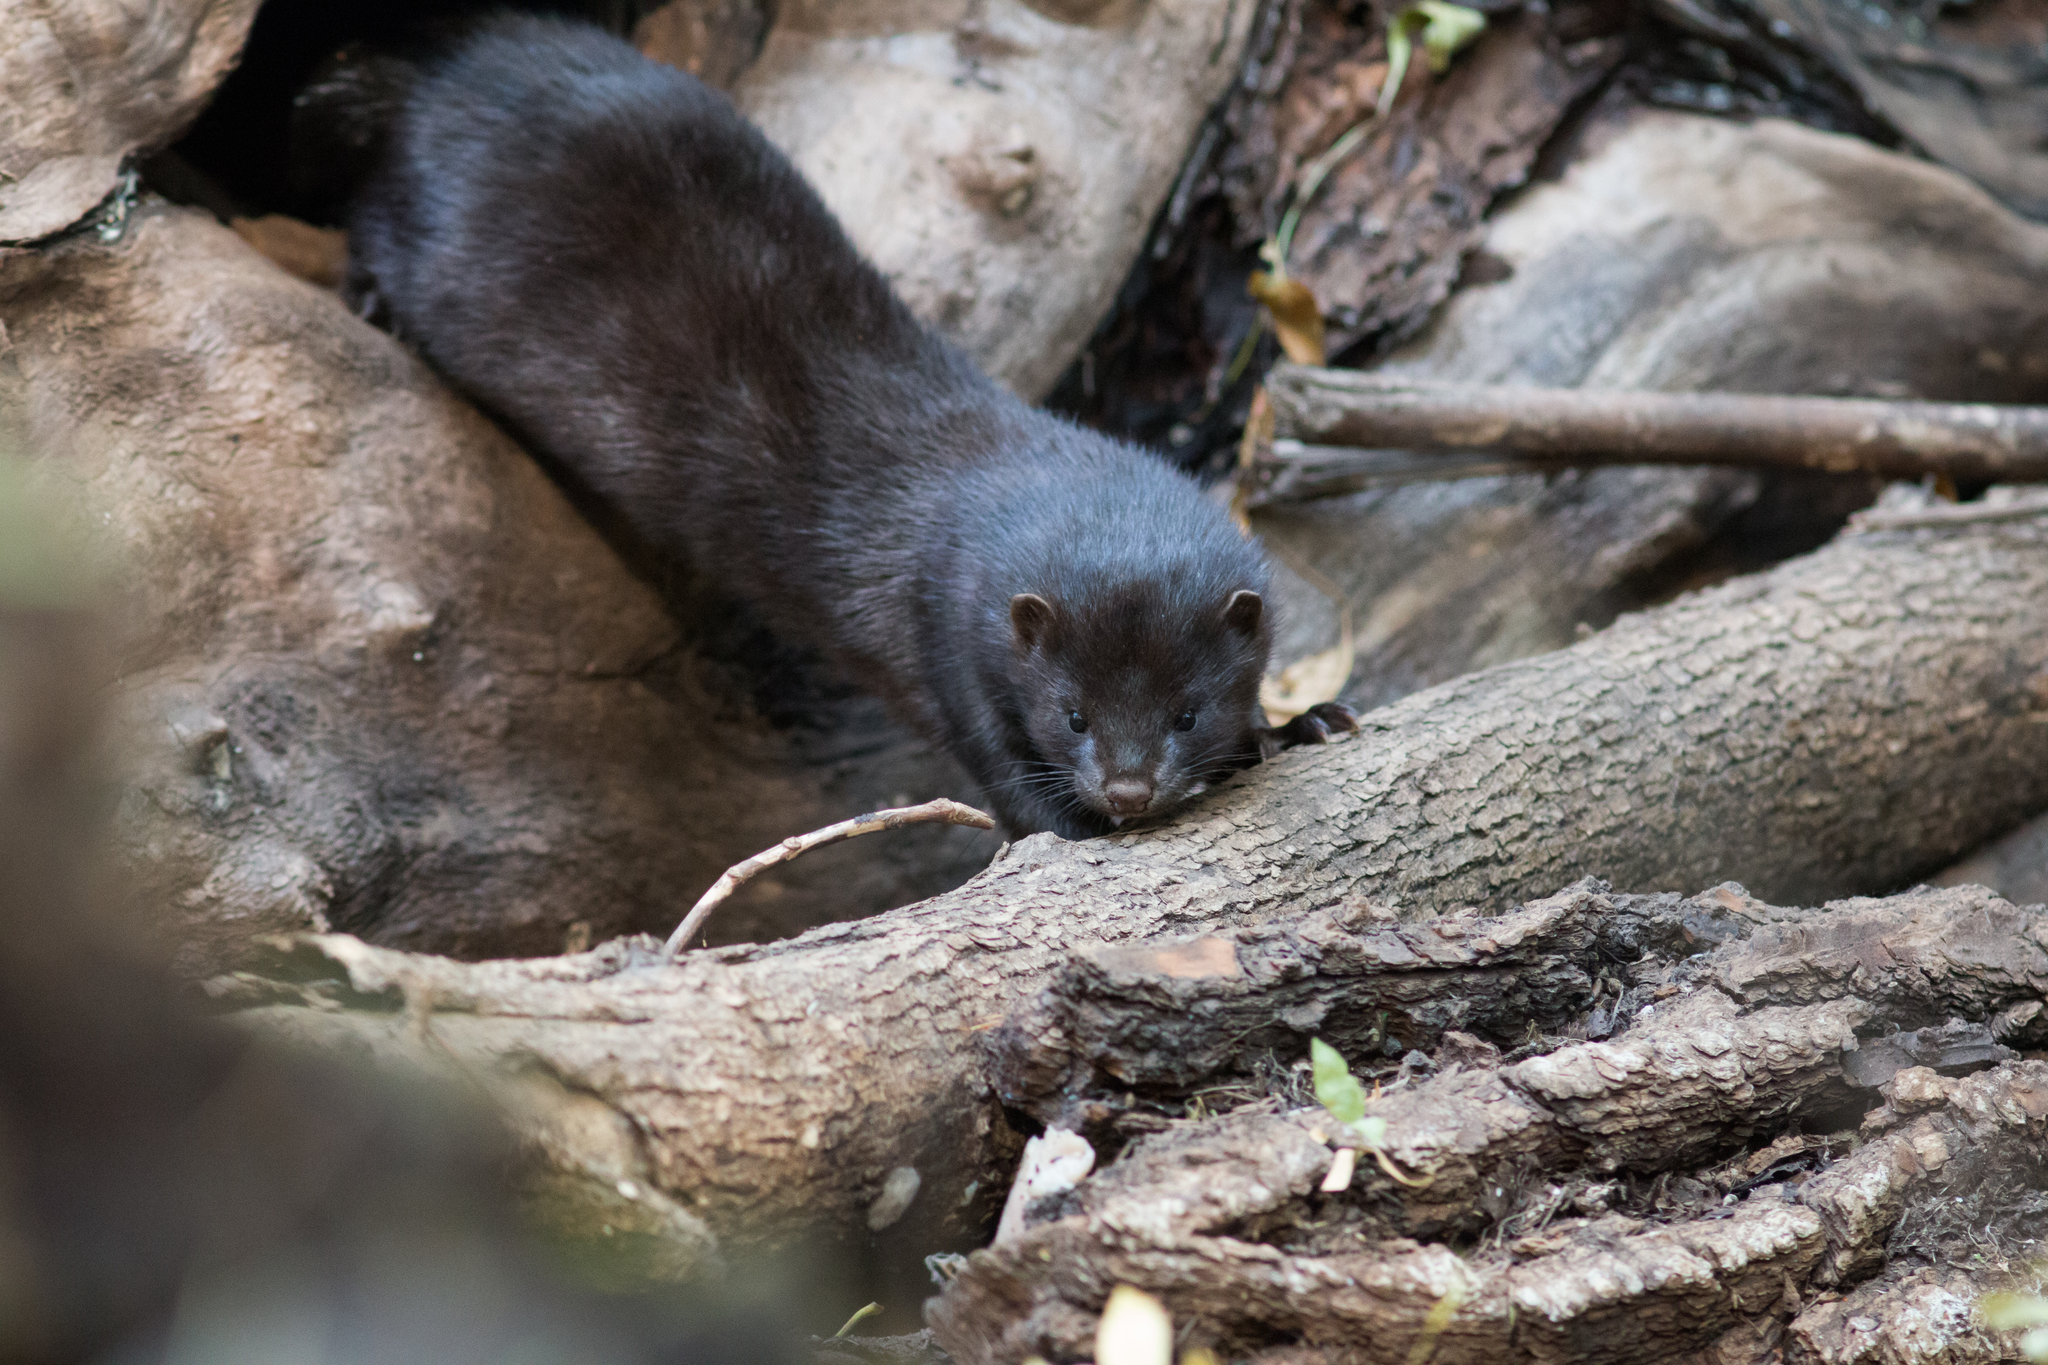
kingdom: Animalia
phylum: Chordata
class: Mammalia
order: Carnivora
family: Mustelidae
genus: Mustela
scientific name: Mustela
